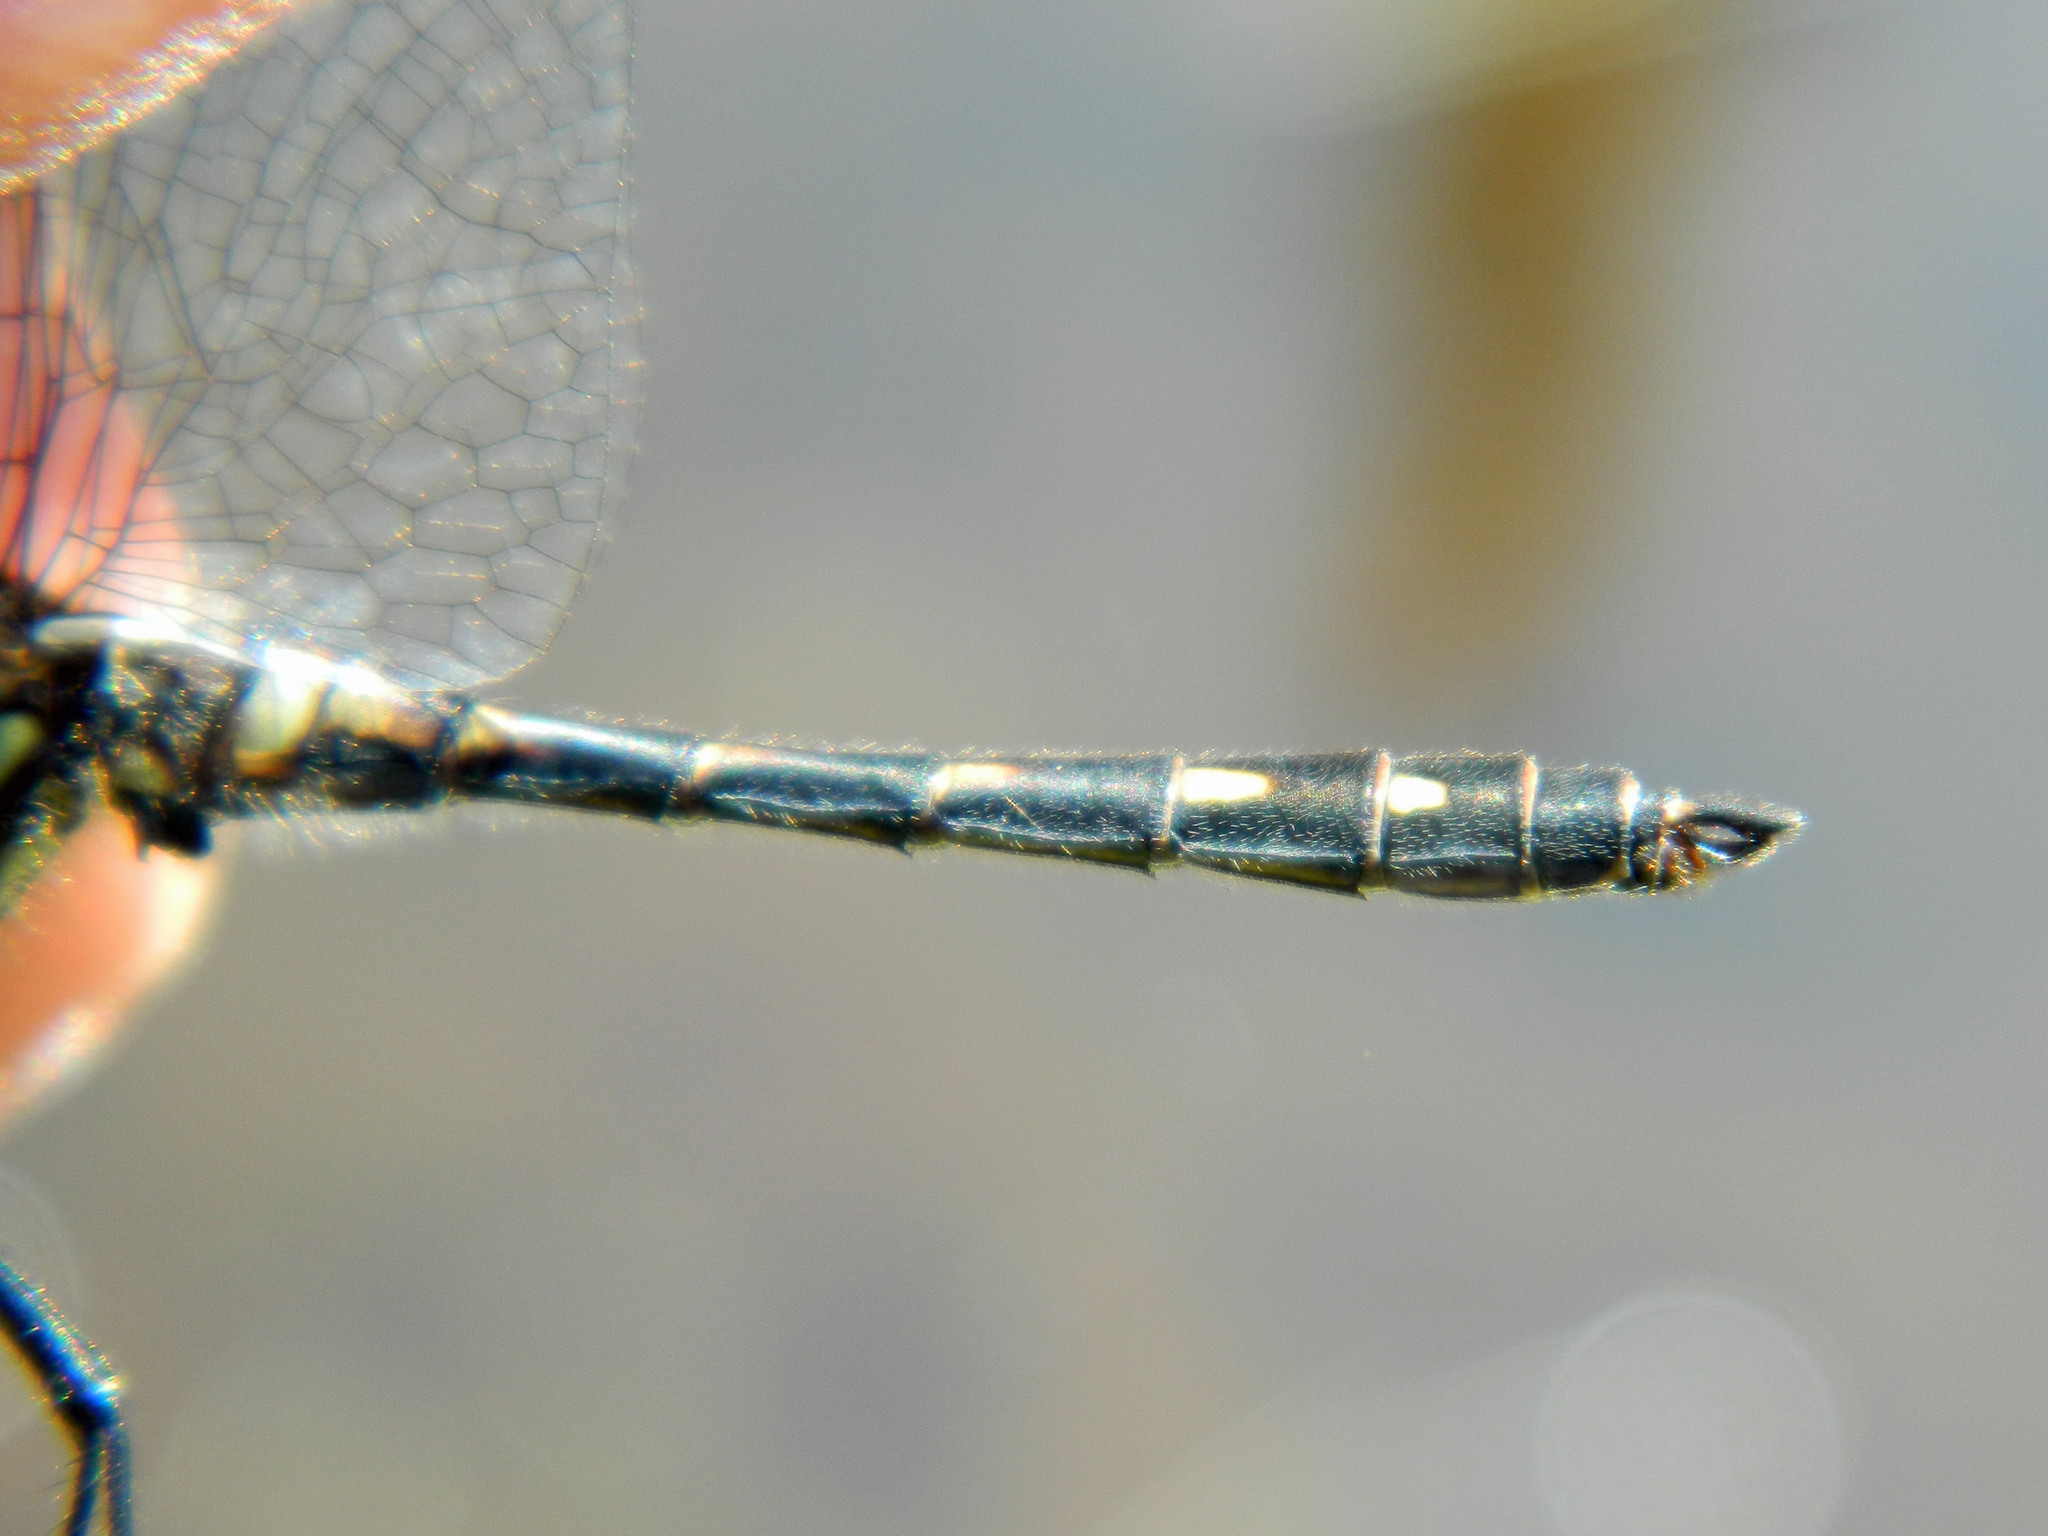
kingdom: Animalia
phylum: Arthropoda
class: Insecta
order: Odonata
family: Libellulidae
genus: Sympetrum
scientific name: Sympetrum danae
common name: Black darter
